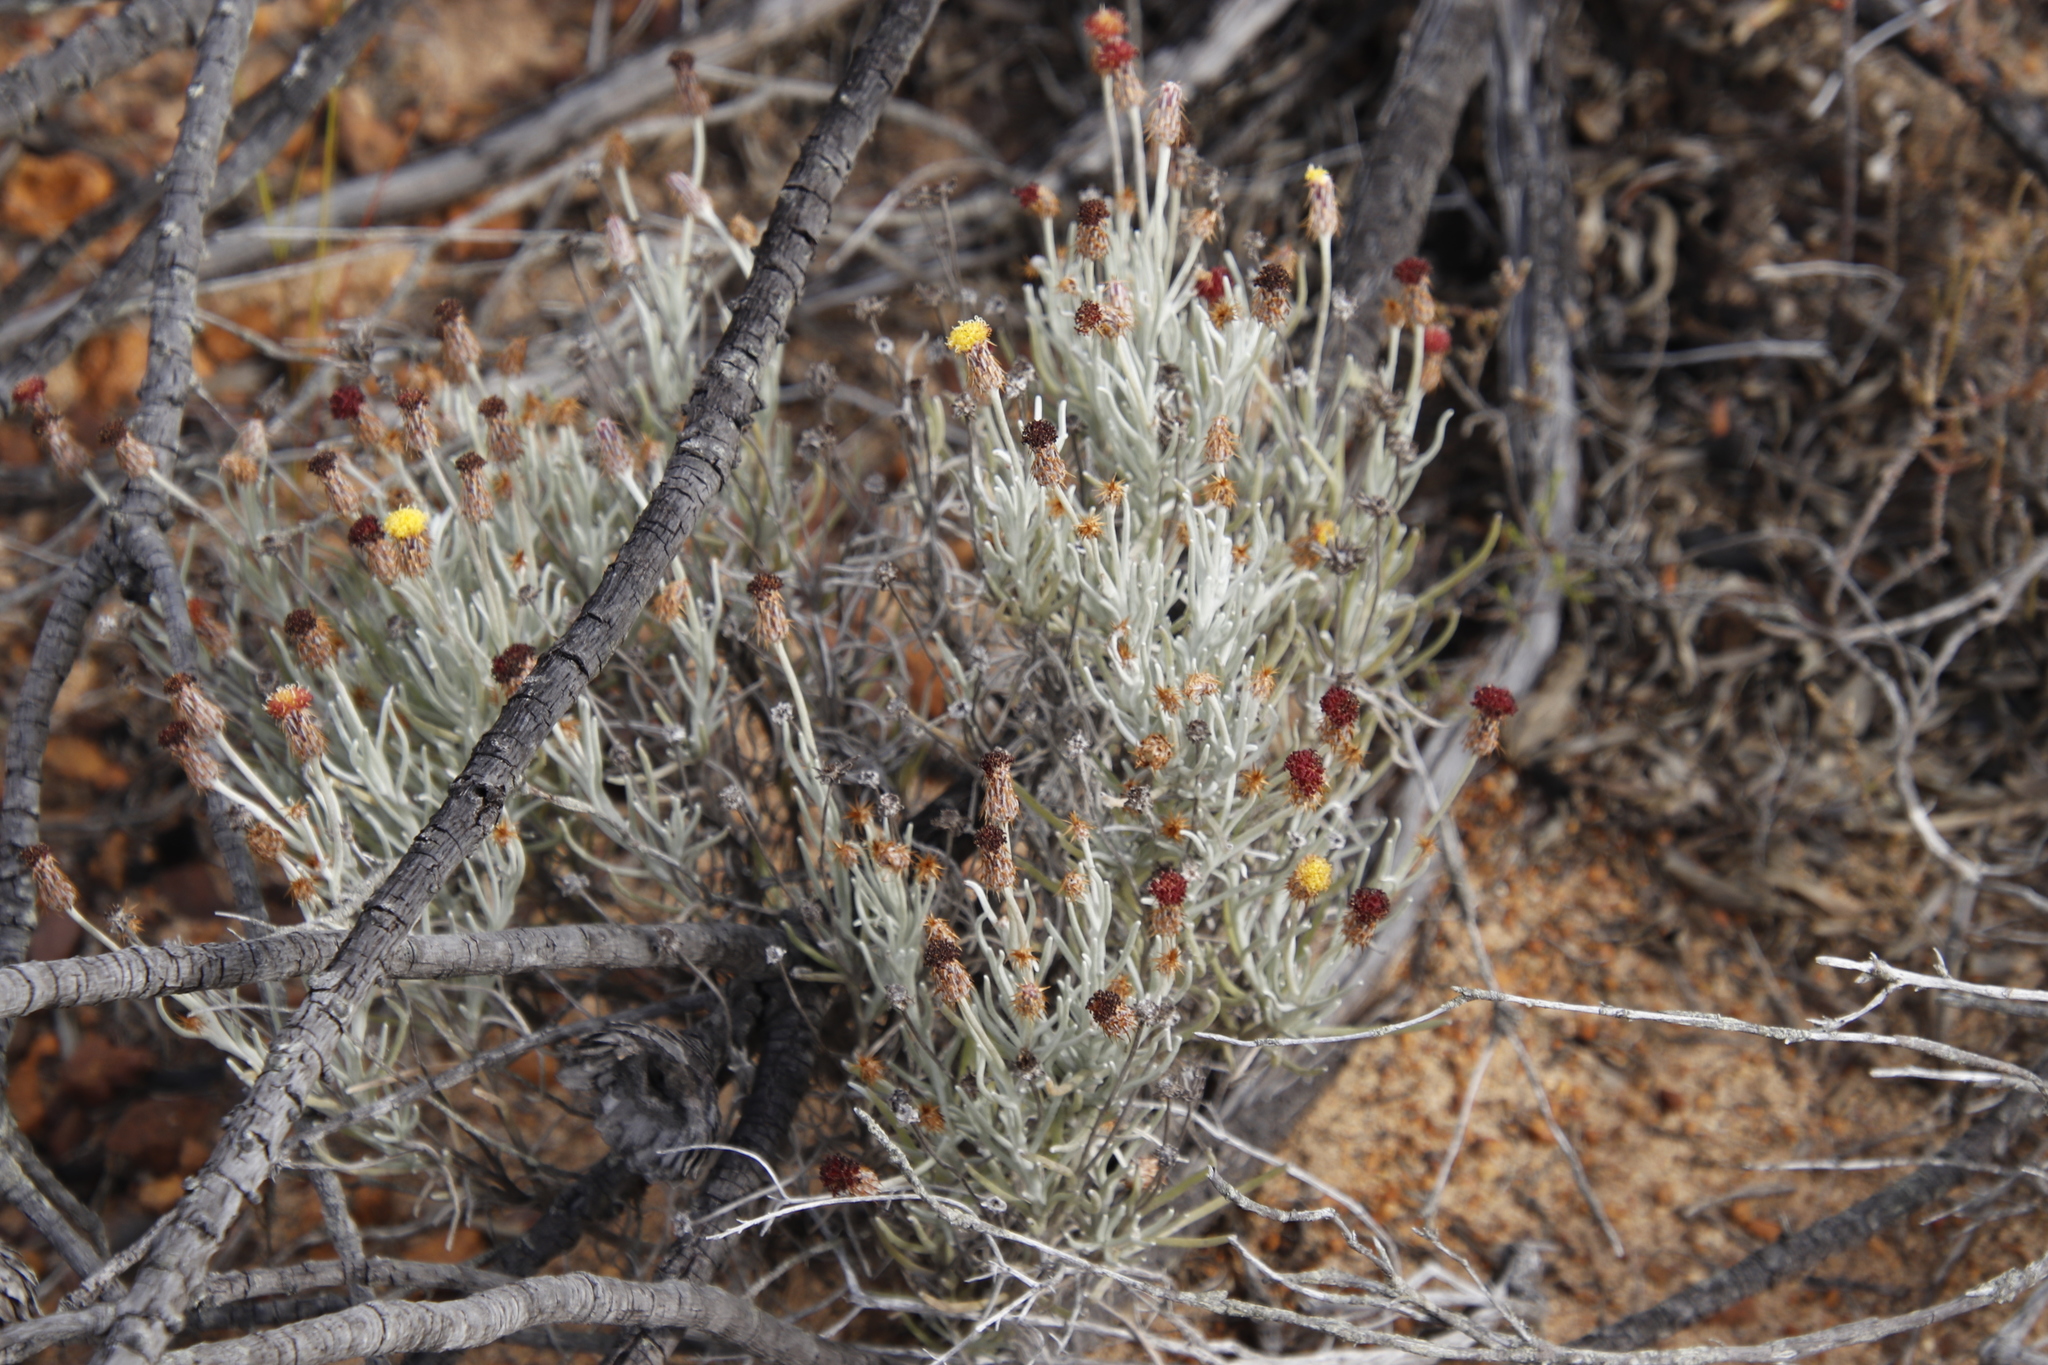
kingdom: Plantae
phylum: Tracheophyta
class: Magnoliopsida
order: Asterales
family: Asteraceae
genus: Syncarpha
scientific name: Syncarpha gnaphaloides
